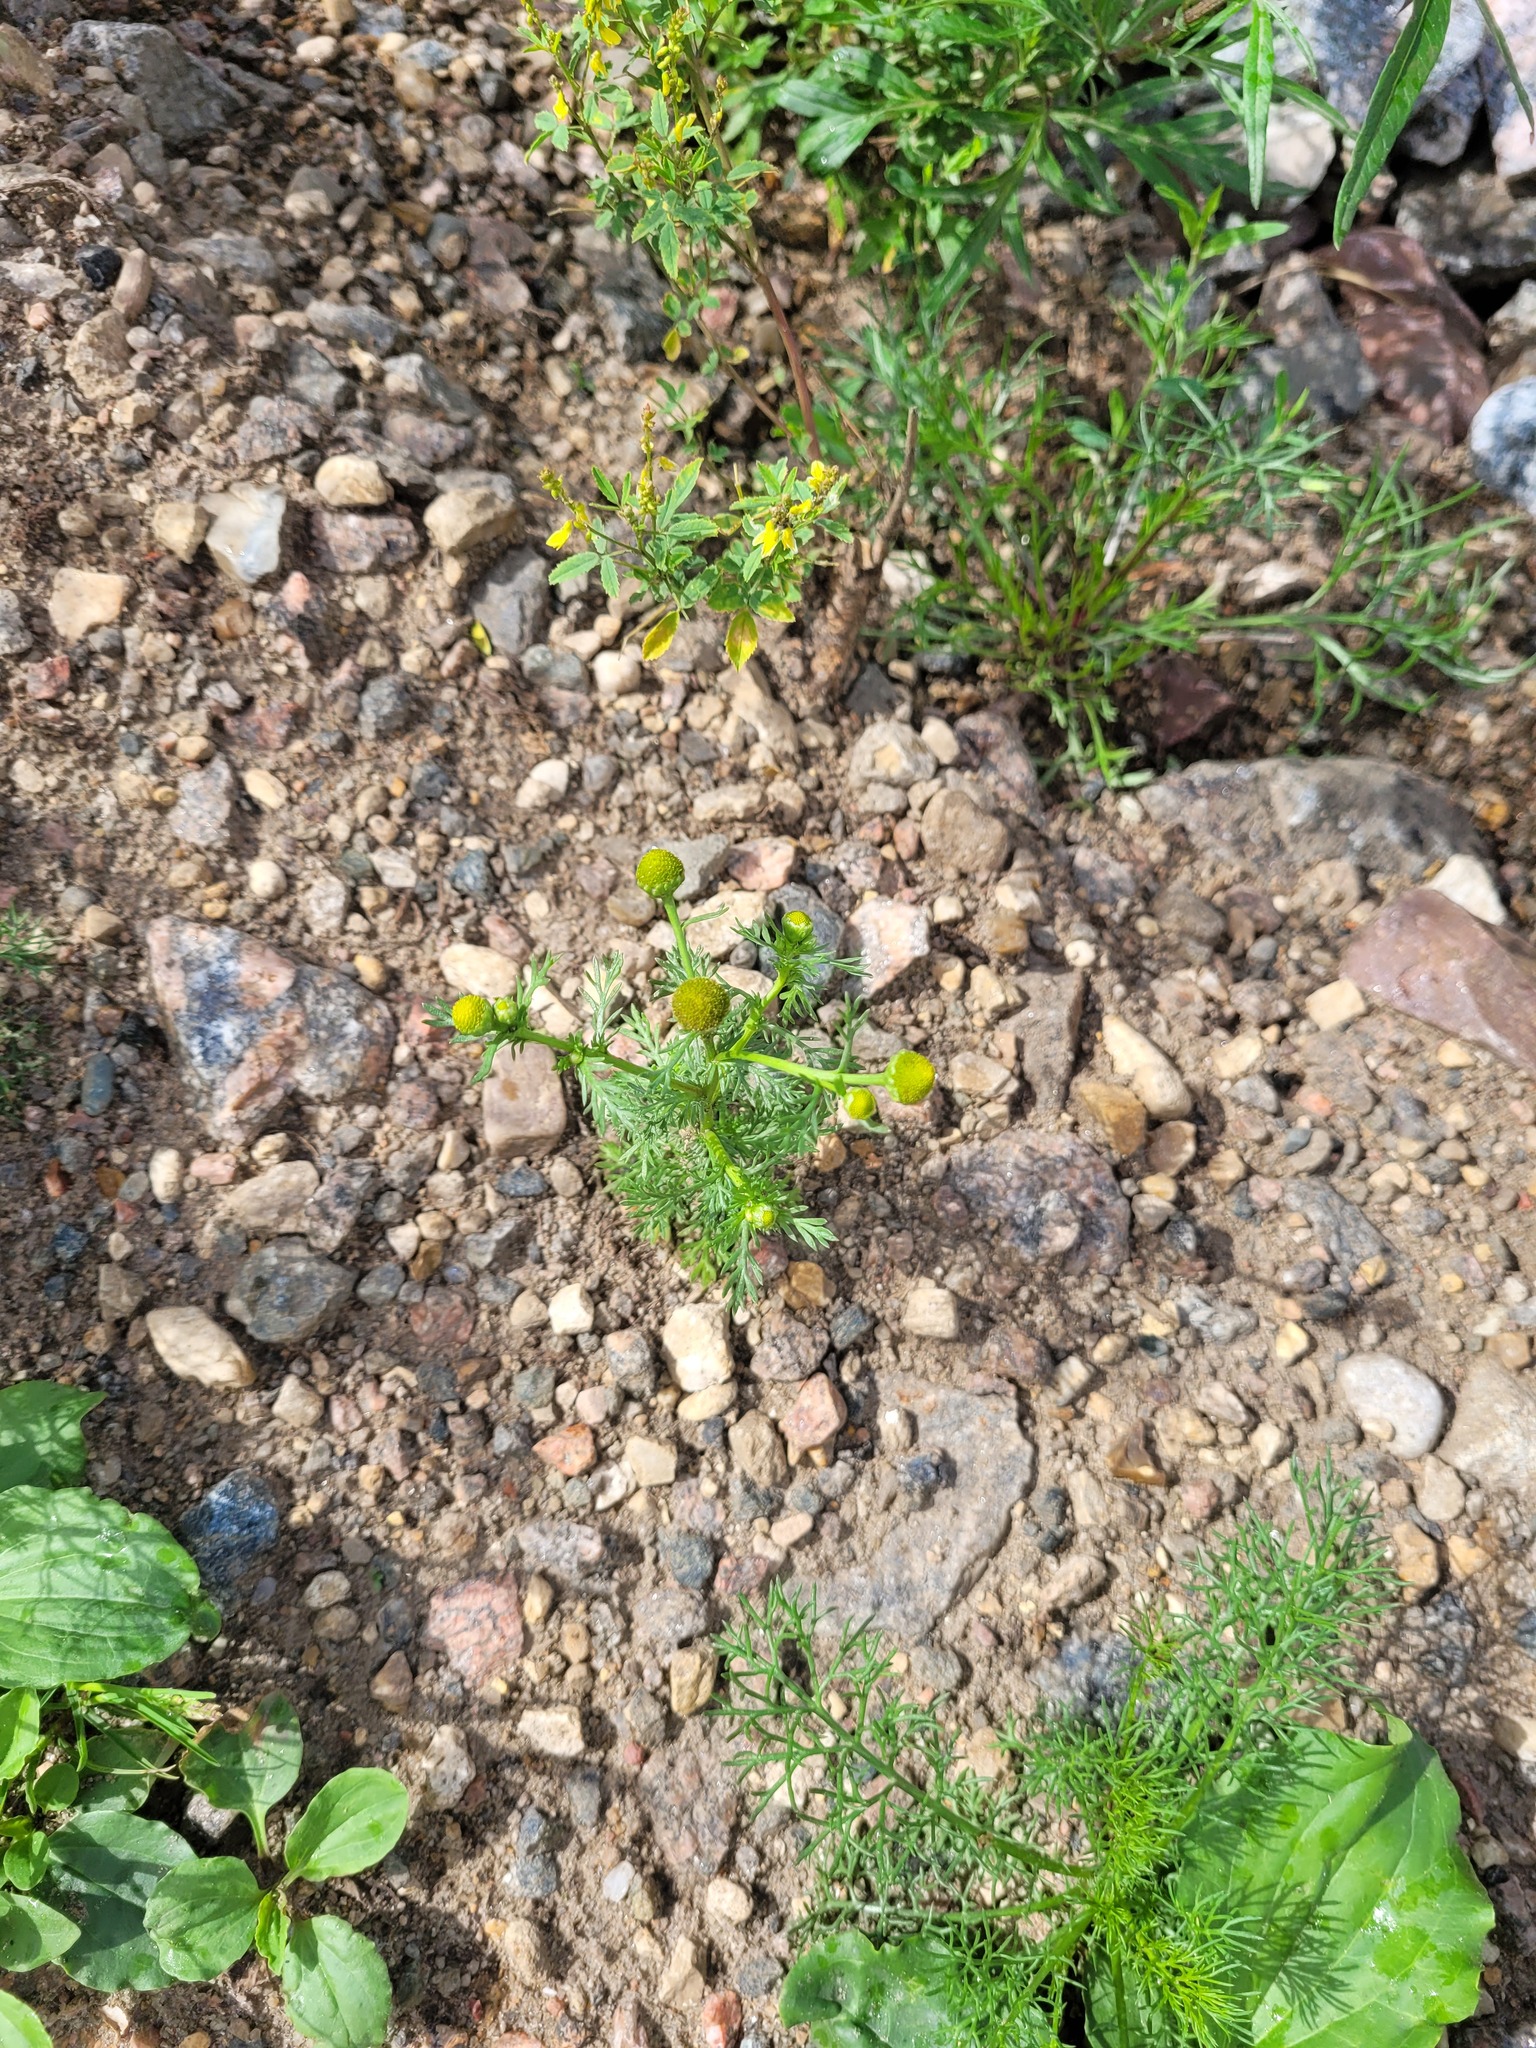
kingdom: Plantae
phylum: Tracheophyta
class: Magnoliopsida
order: Asterales
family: Asteraceae
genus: Matricaria
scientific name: Matricaria discoidea
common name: Disc mayweed
